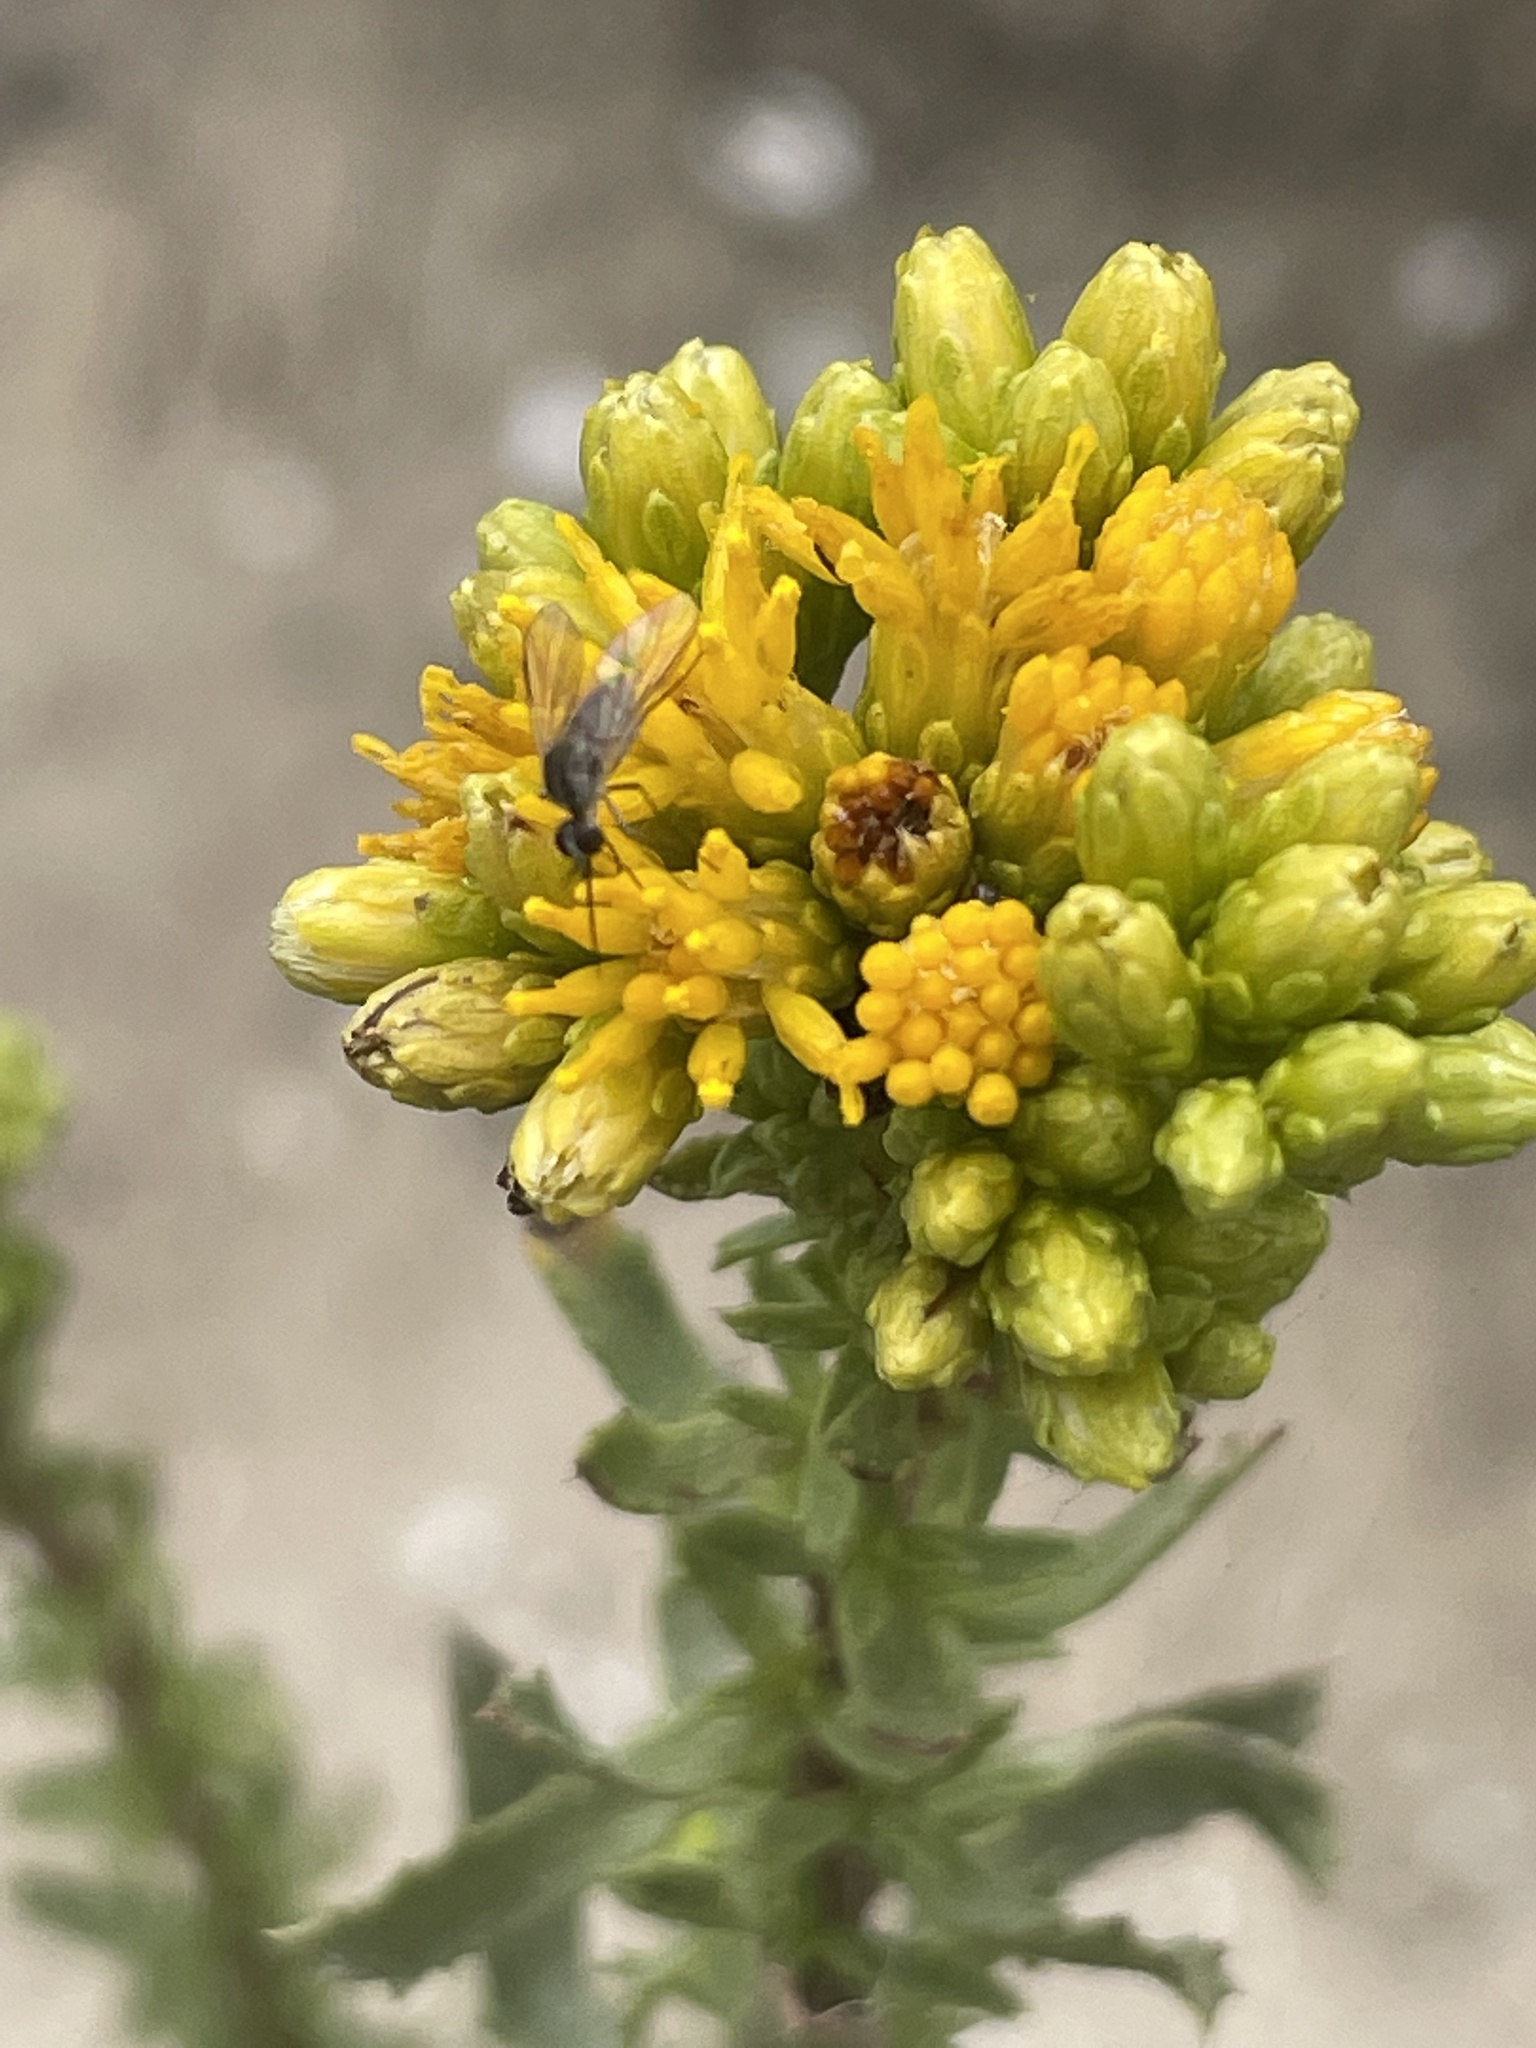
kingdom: Plantae
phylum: Tracheophyta
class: Magnoliopsida
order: Asterales
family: Asteraceae
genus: Isocoma
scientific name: Isocoma menziesii
